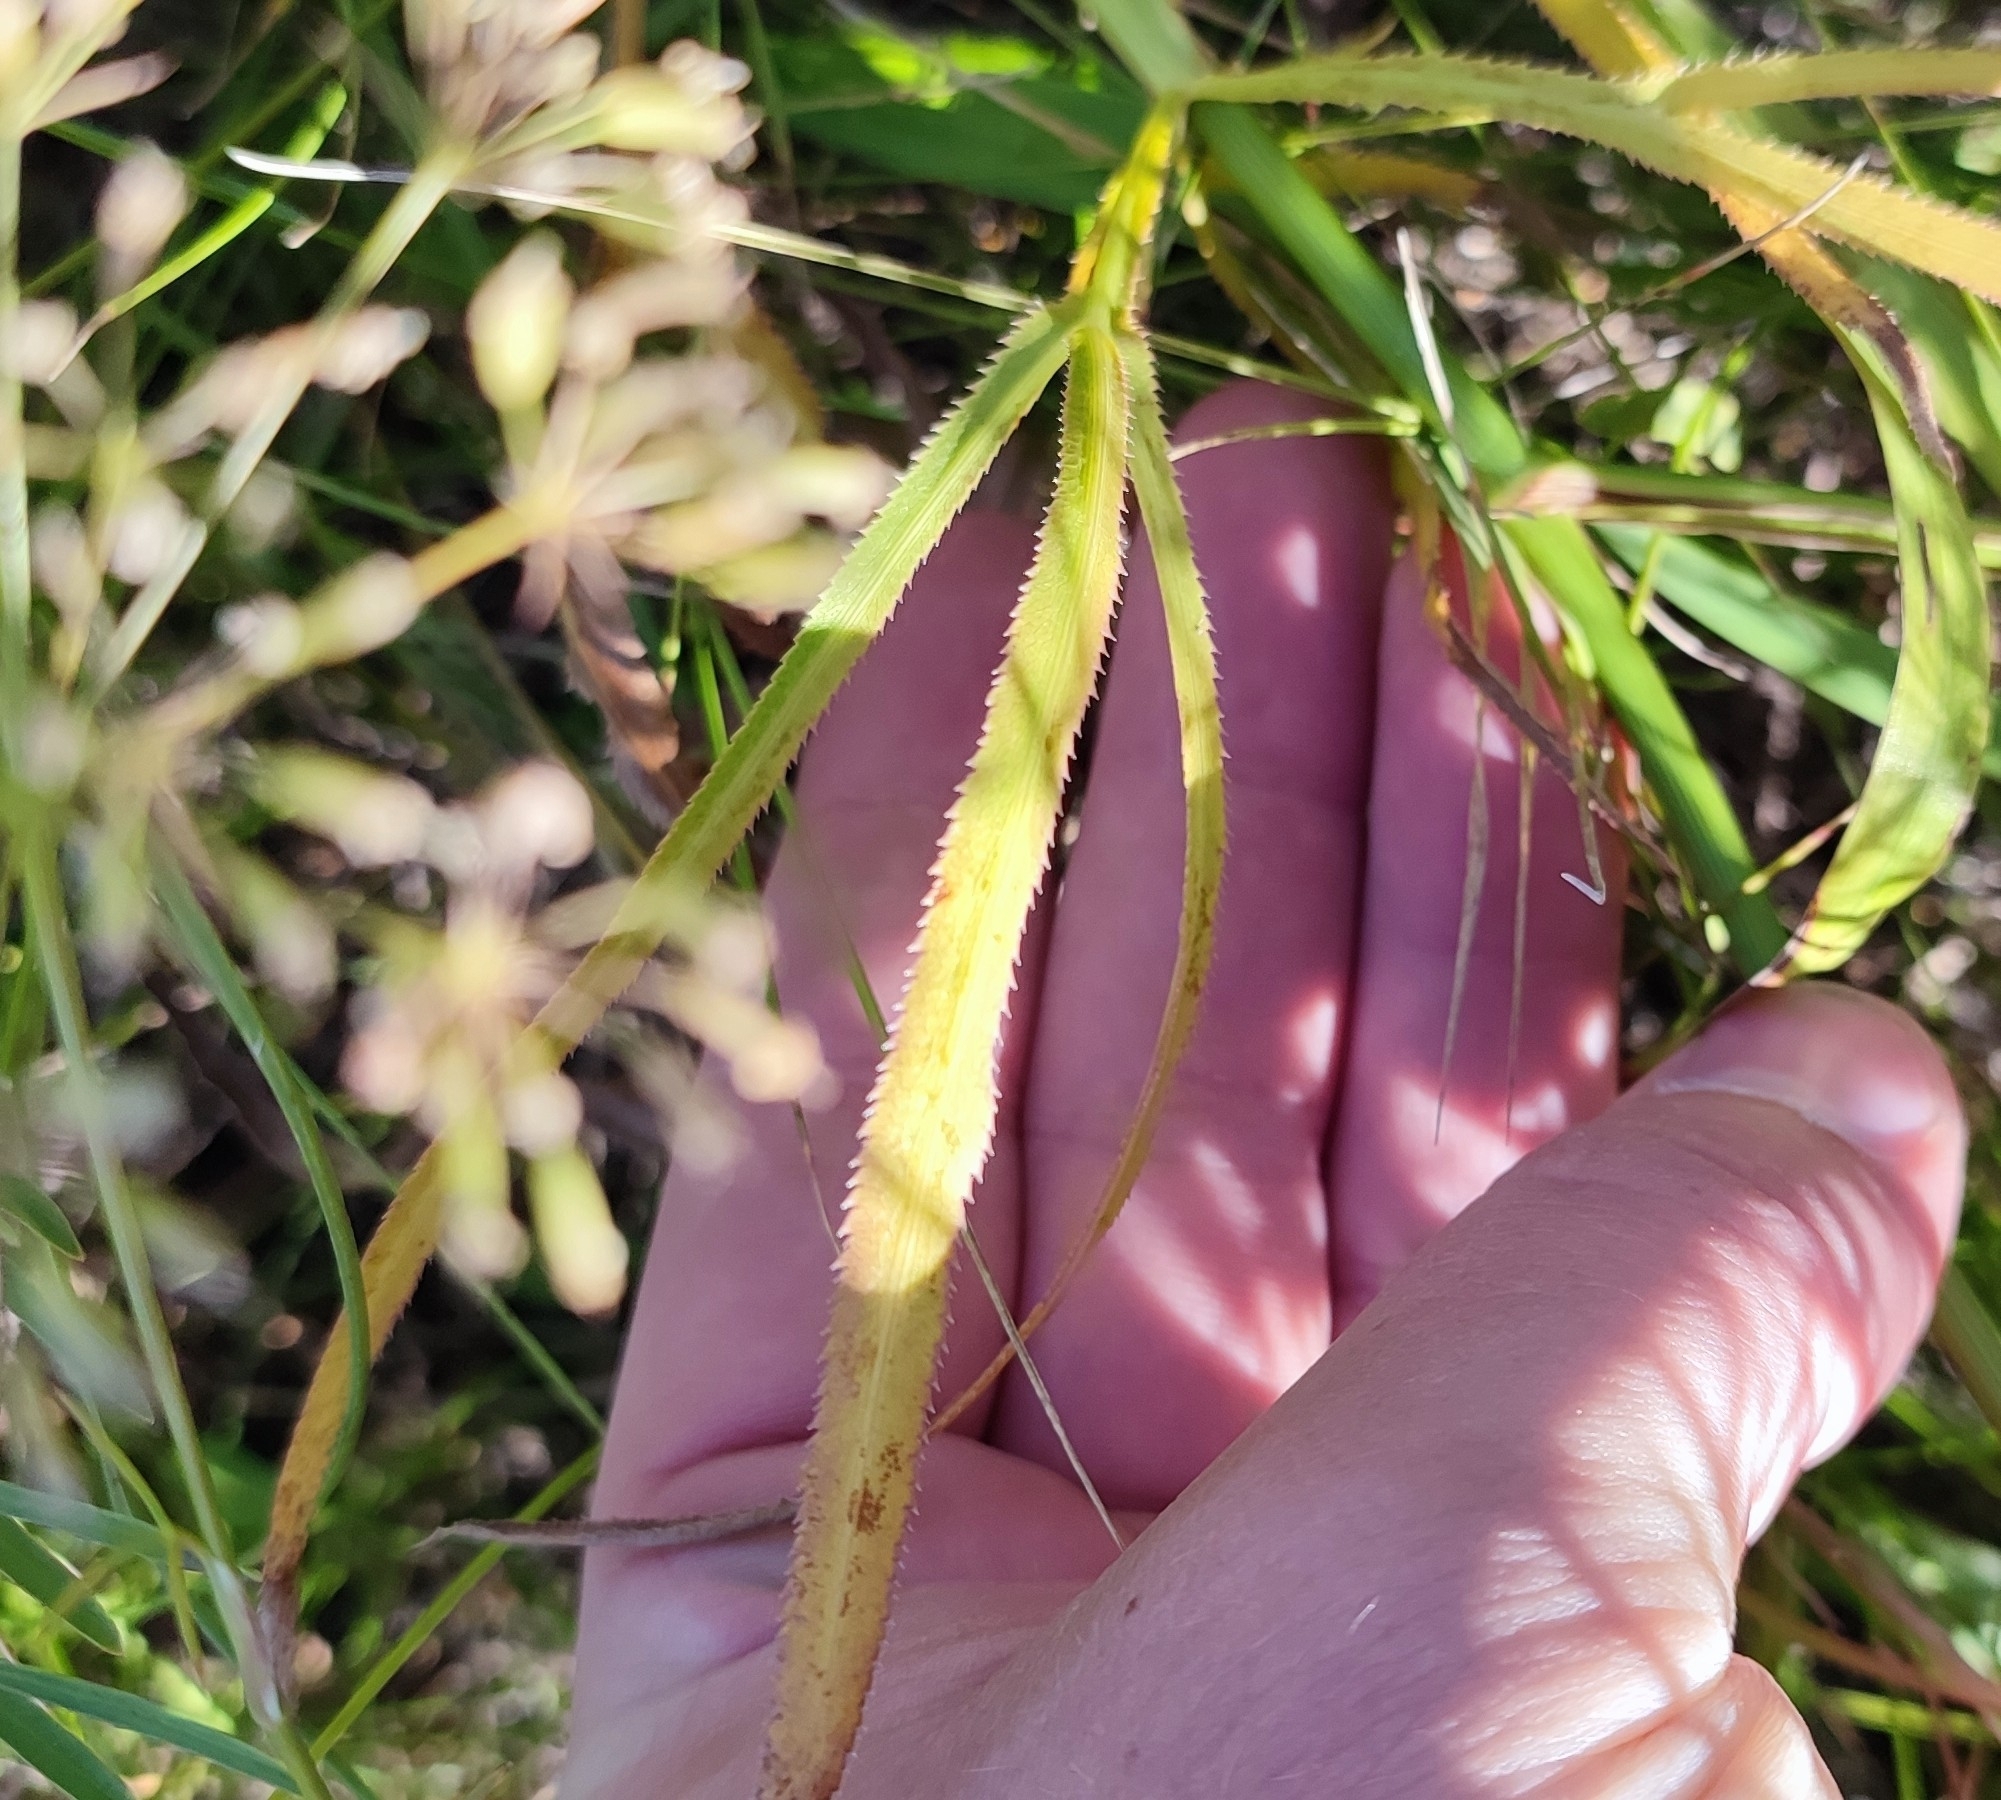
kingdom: Plantae
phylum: Tracheophyta
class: Magnoliopsida
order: Apiales
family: Apiaceae
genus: Falcaria
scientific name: Falcaria vulgaris
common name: Longleaf
